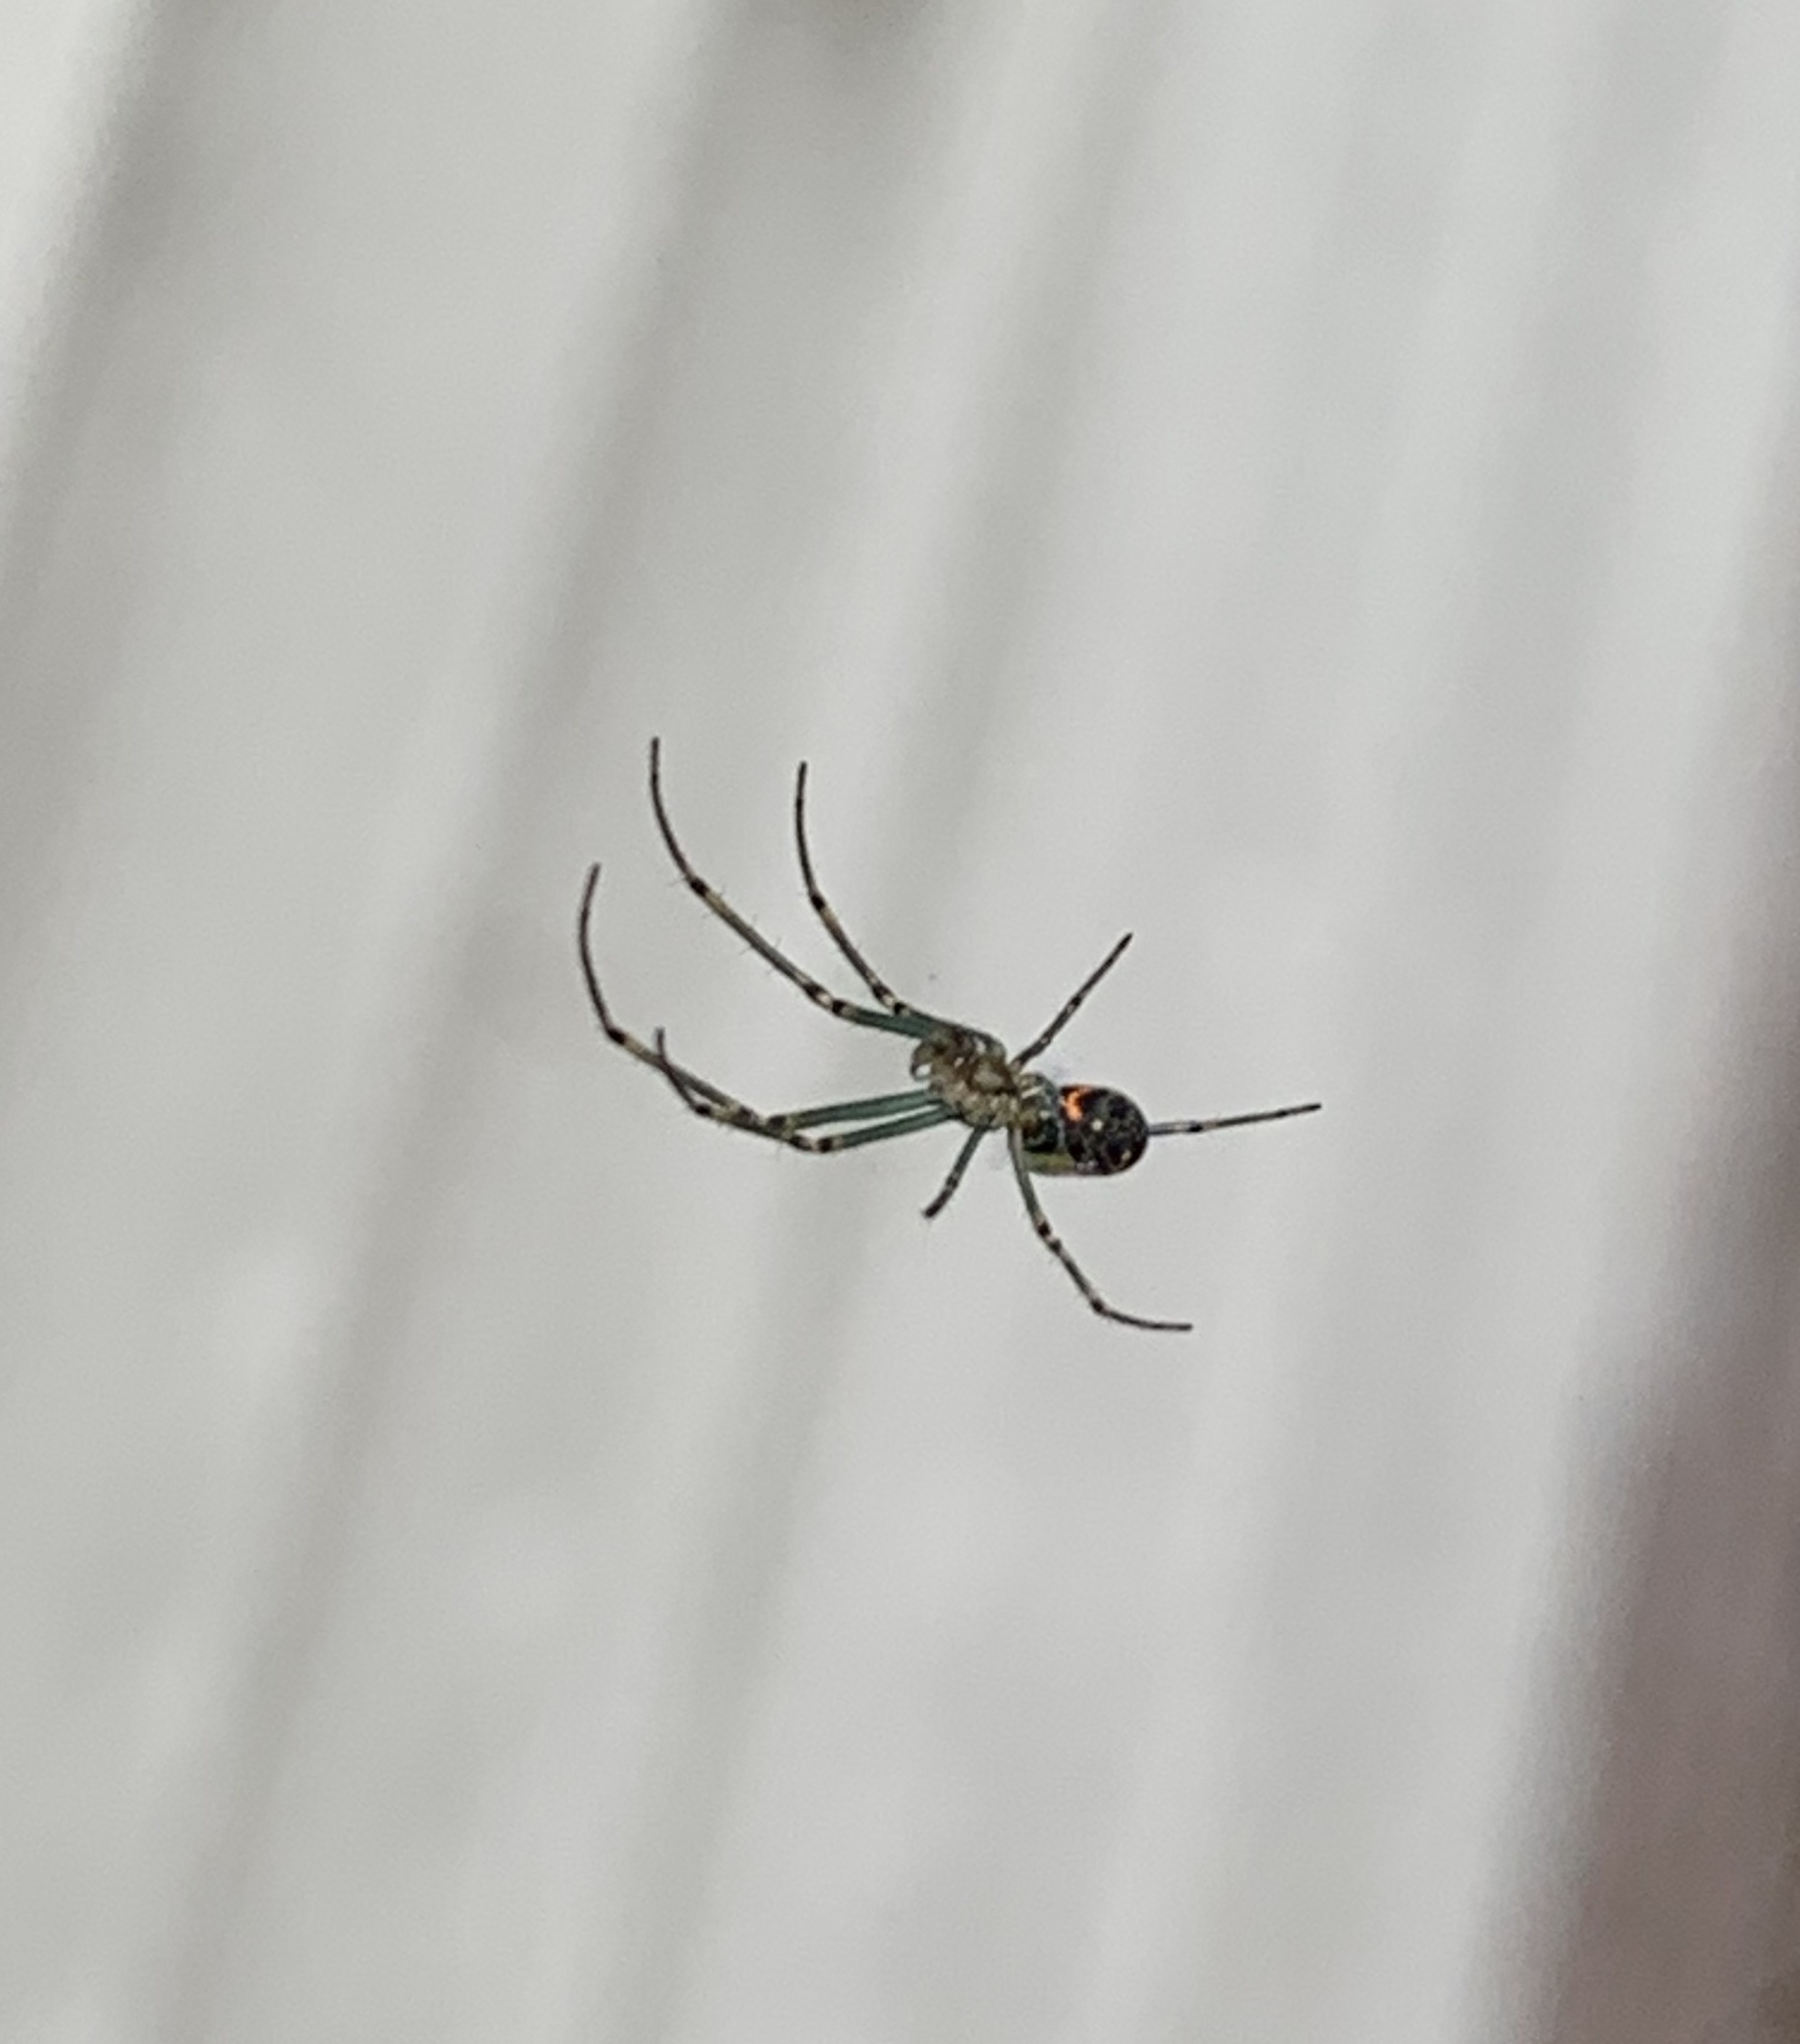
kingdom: Animalia
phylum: Arthropoda
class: Arachnida
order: Araneae
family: Tetragnathidae
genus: Leucauge
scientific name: Leucauge venusta
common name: Longjawed orb weavers
